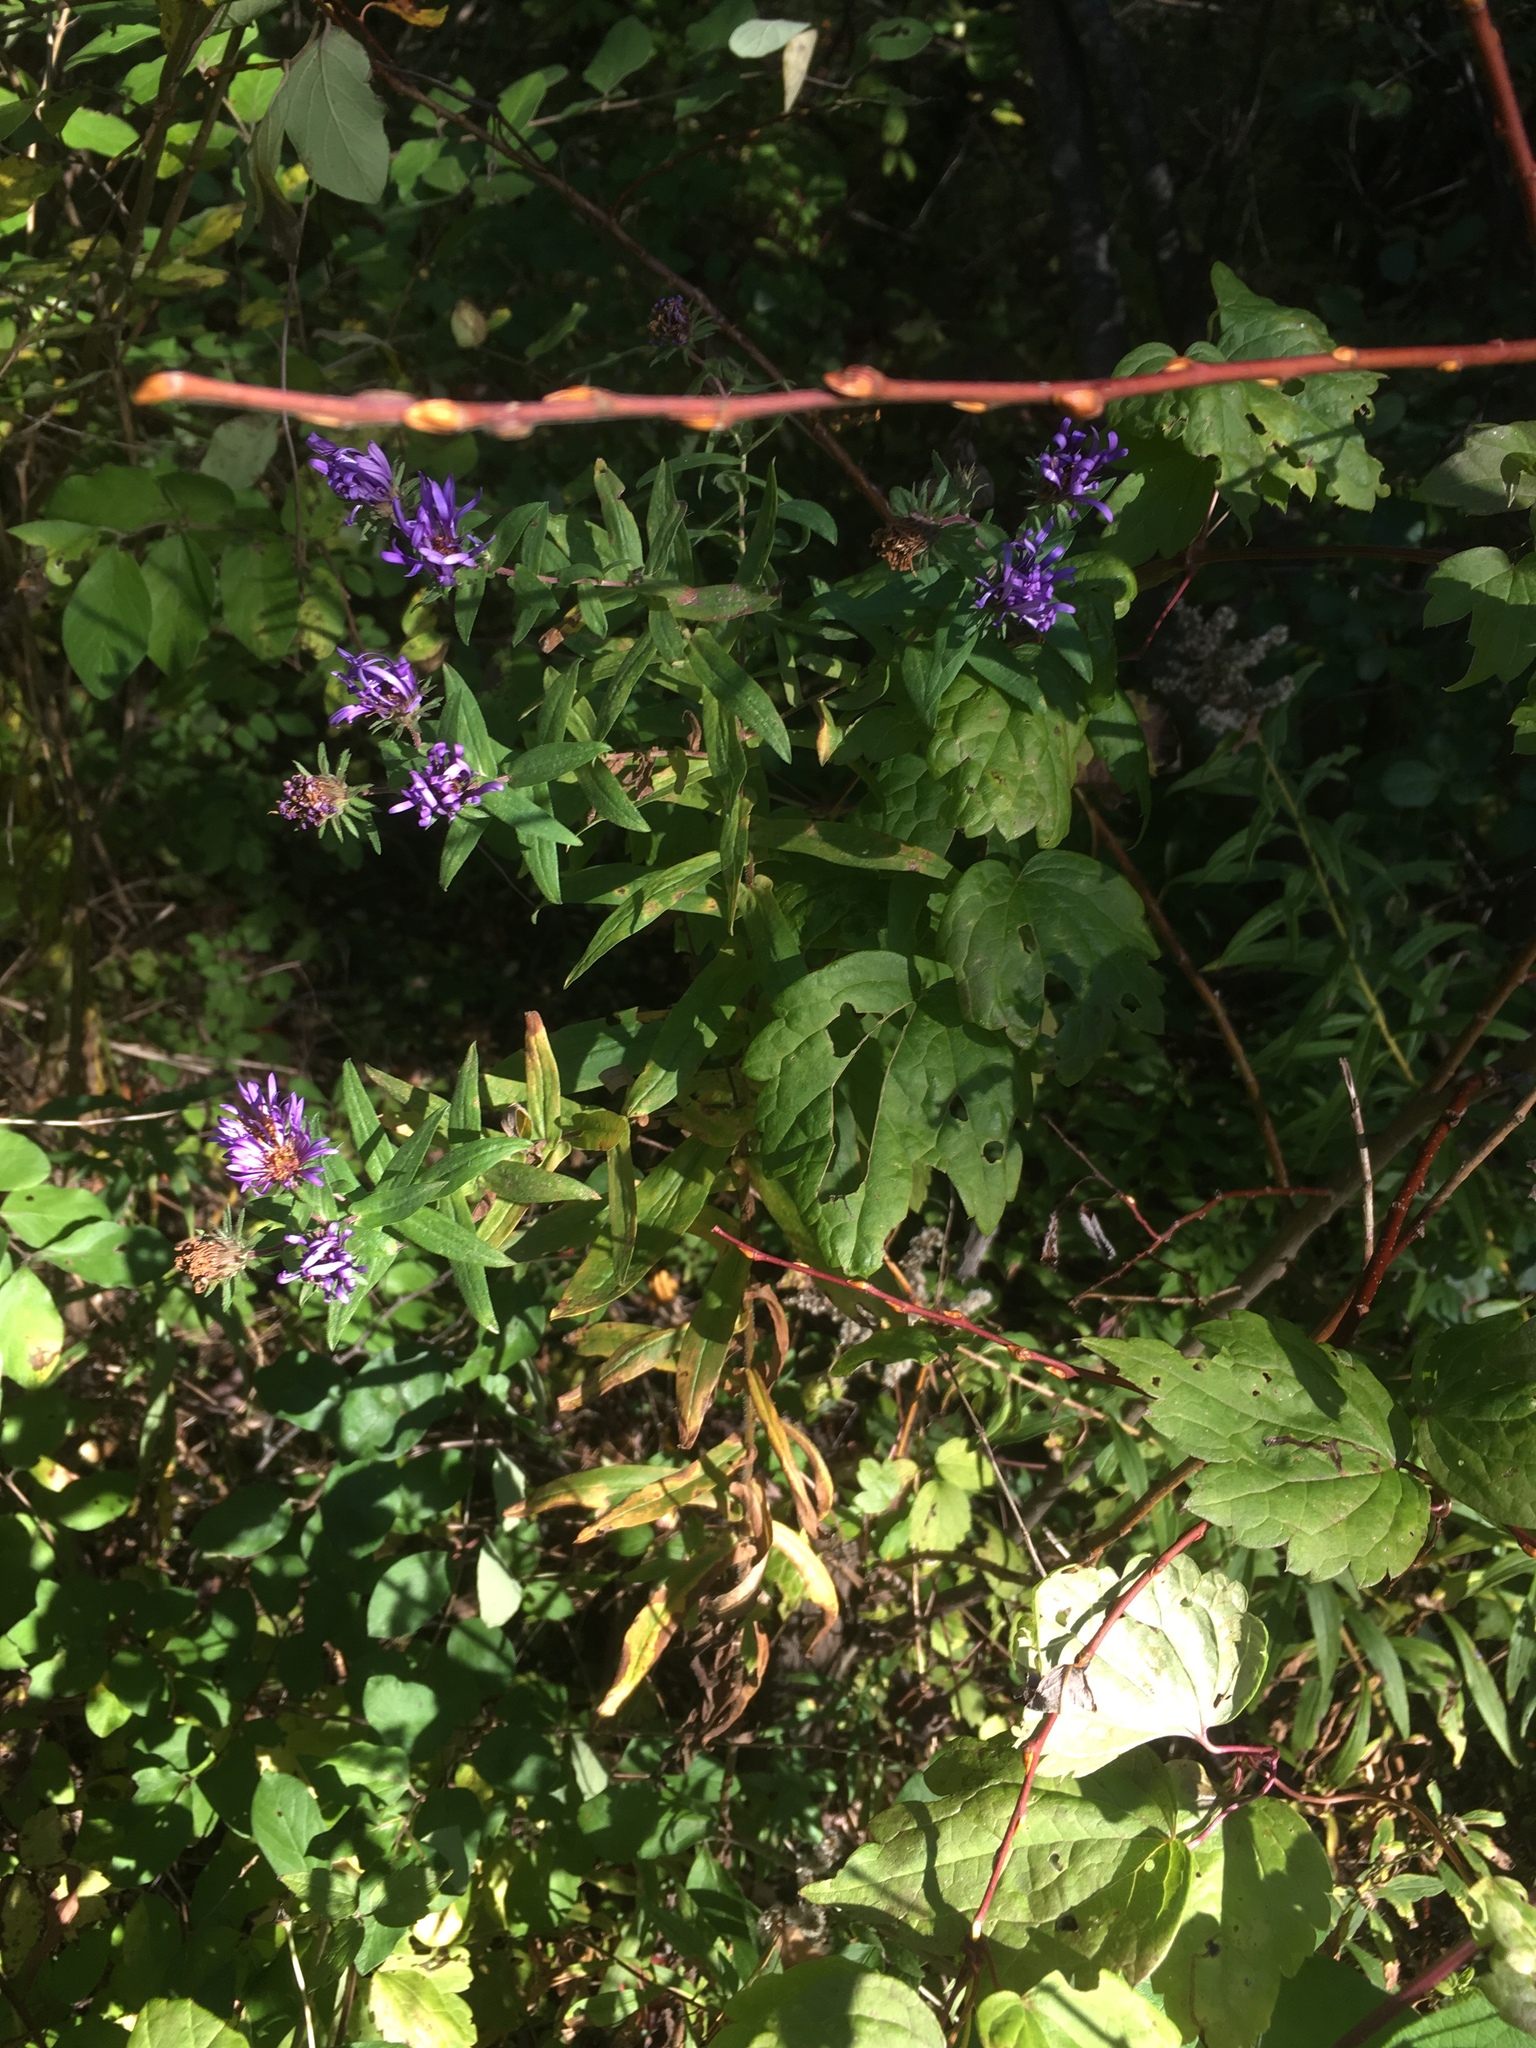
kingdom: Plantae
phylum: Tracheophyta
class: Magnoliopsida
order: Asterales
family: Asteraceae
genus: Symphyotrichum
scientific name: Symphyotrichum novae-angliae
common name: Michaelmas daisy
